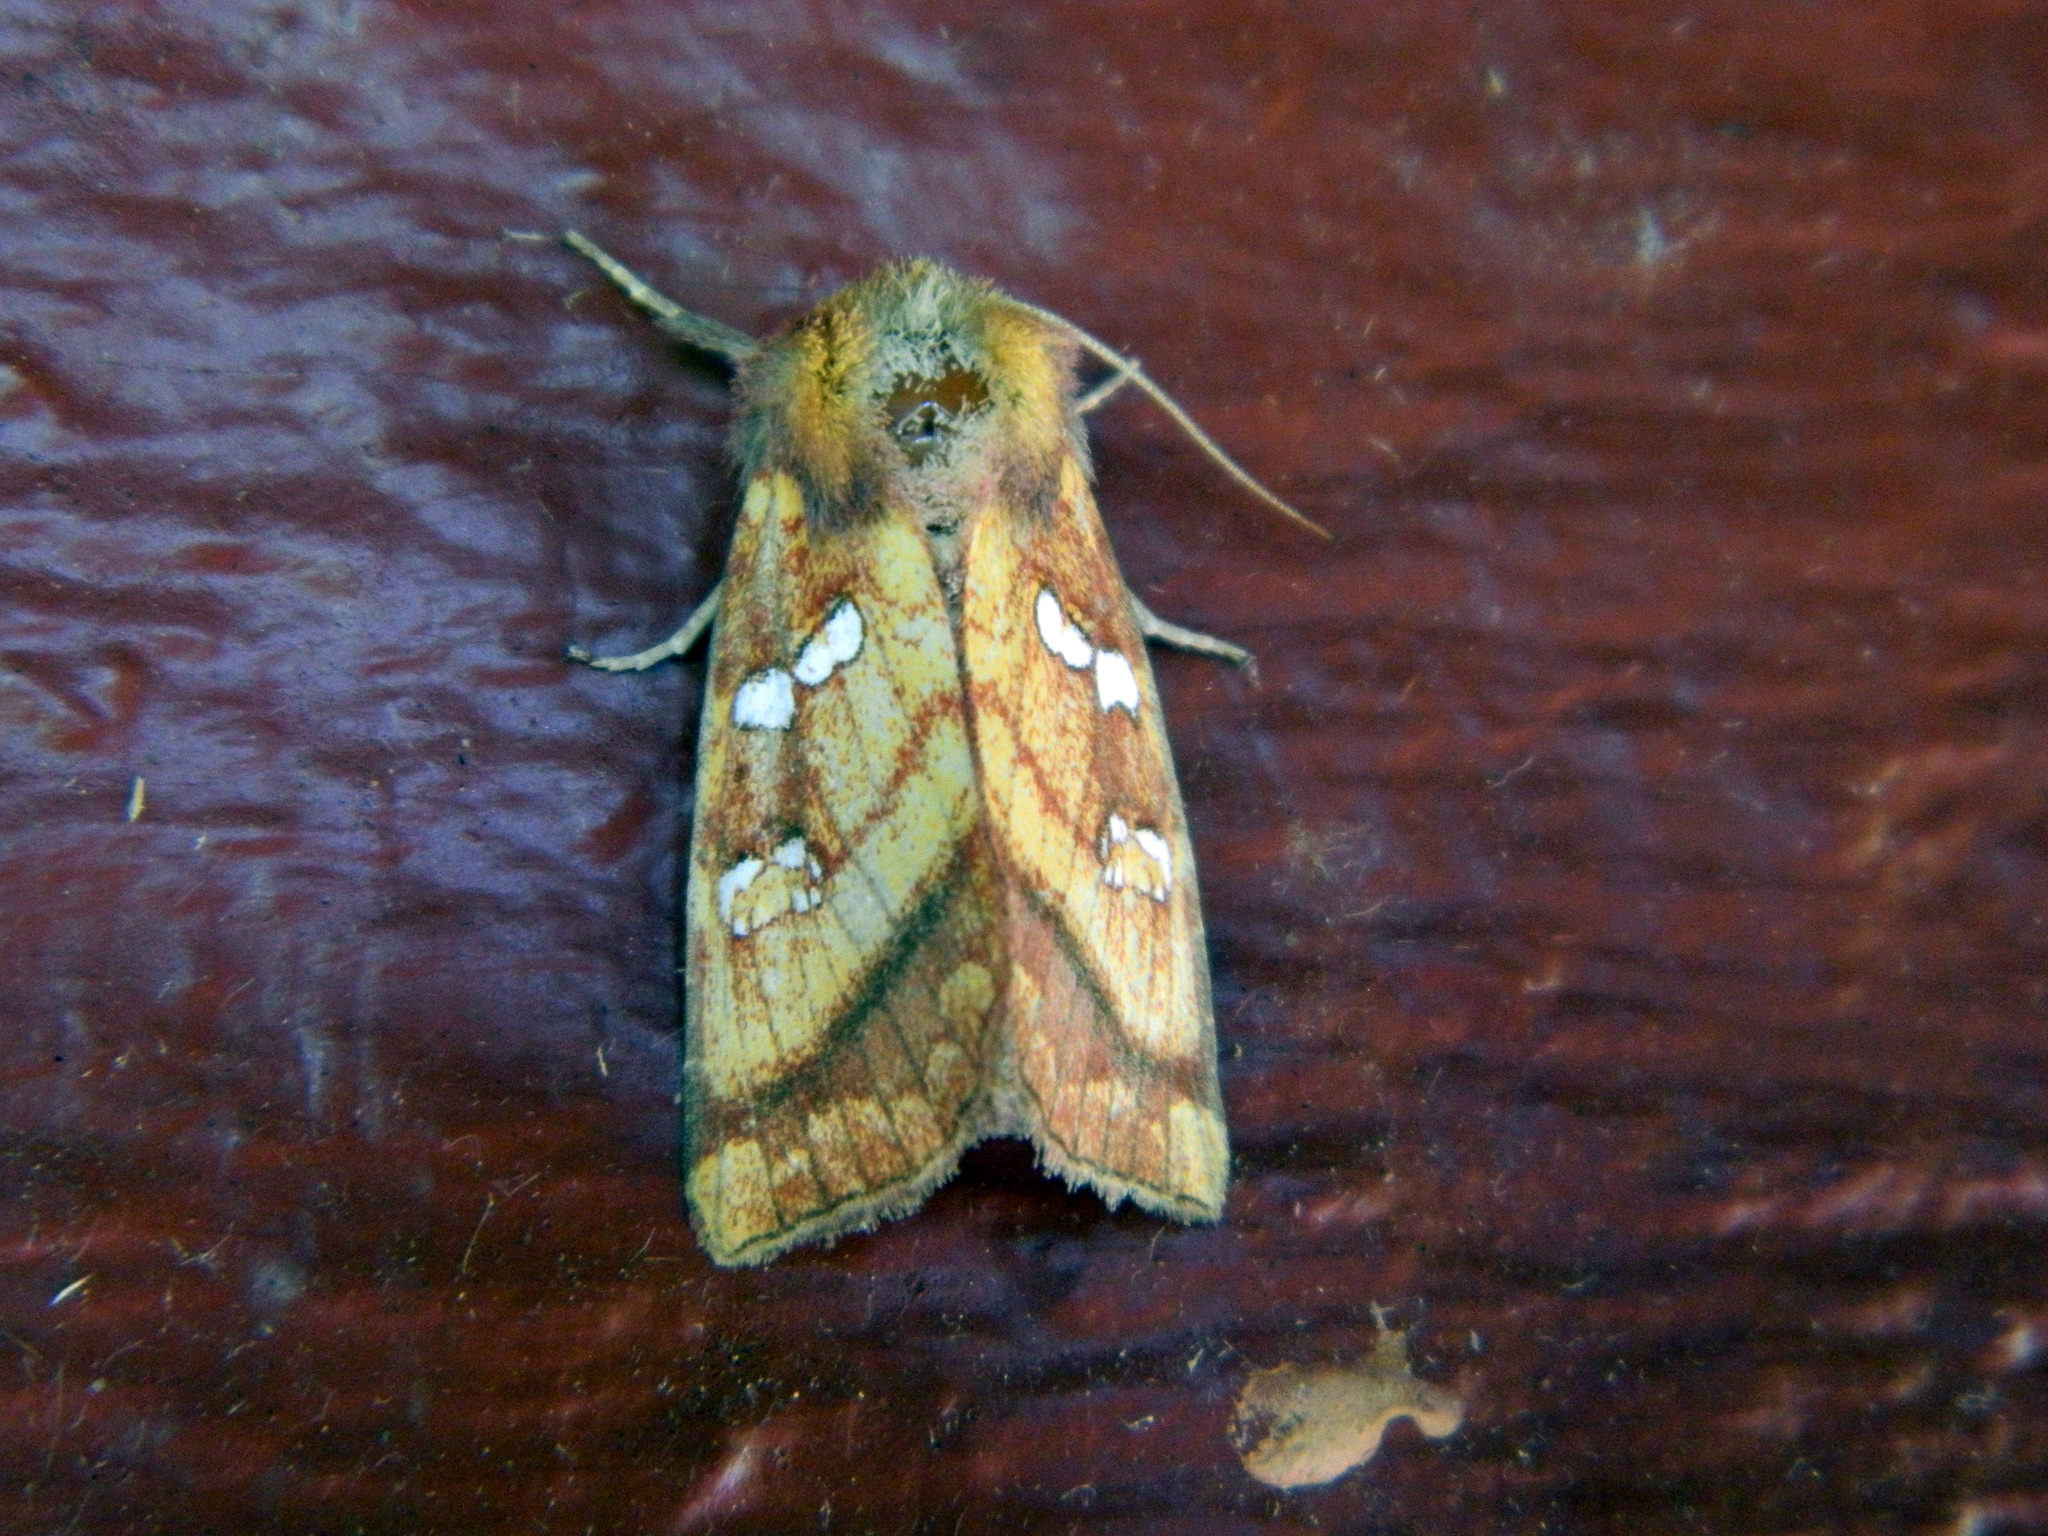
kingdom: Animalia
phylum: Arthropoda
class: Insecta
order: Lepidoptera
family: Noctuidae
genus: Papaipema
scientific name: Papaipema pterisii
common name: Bracken borer moth
